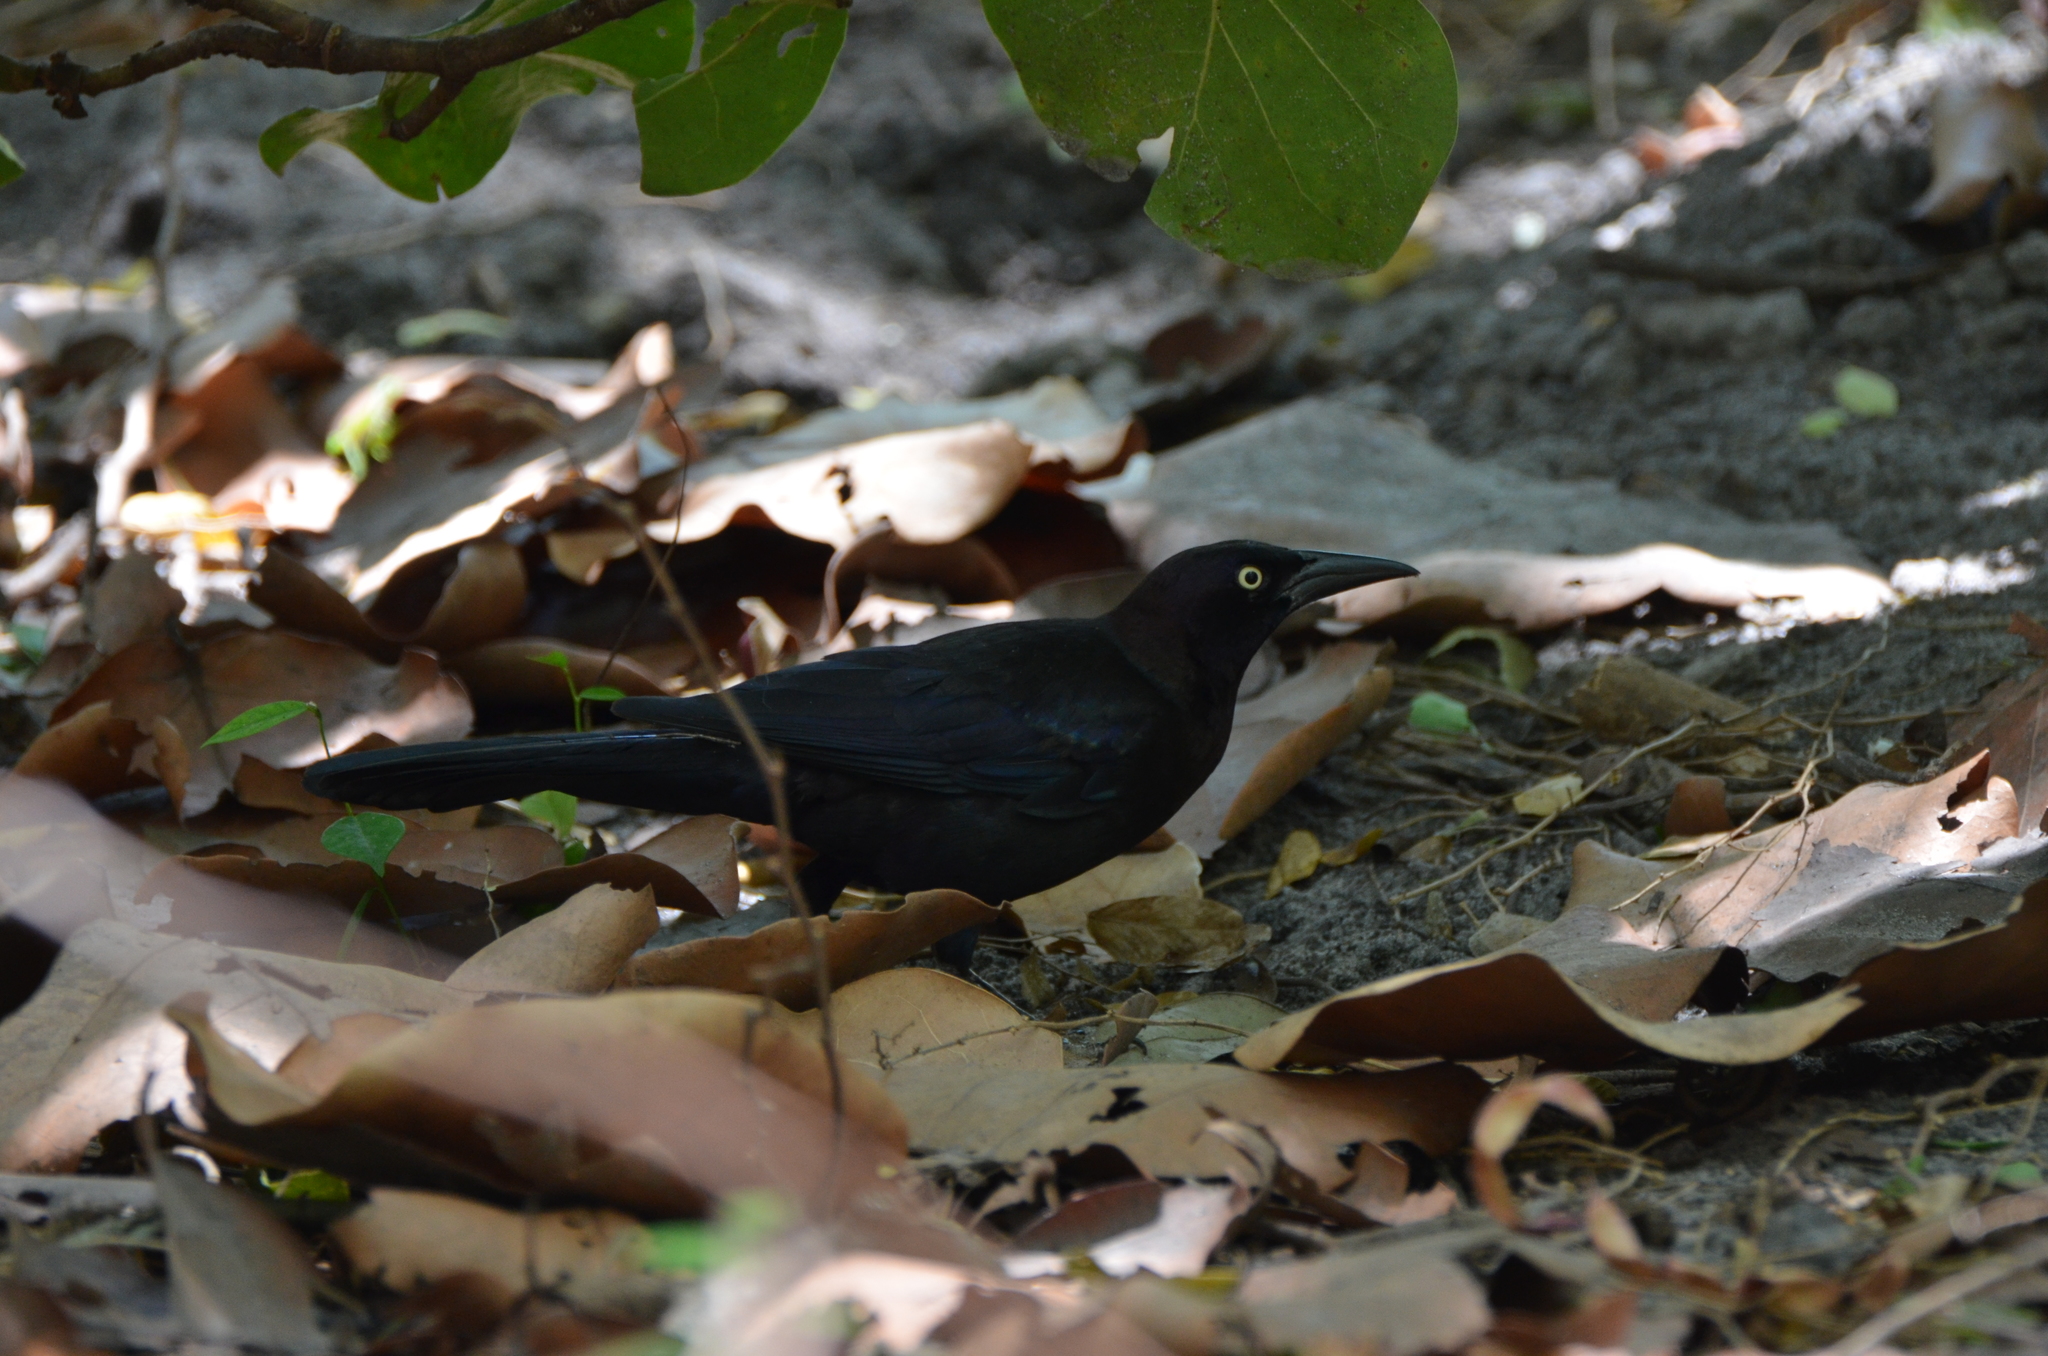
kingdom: Animalia
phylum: Chordata
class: Aves
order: Passeriformes
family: Icteridae
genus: Quiscalus
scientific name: Quiscalus quiscula
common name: Common grackle
